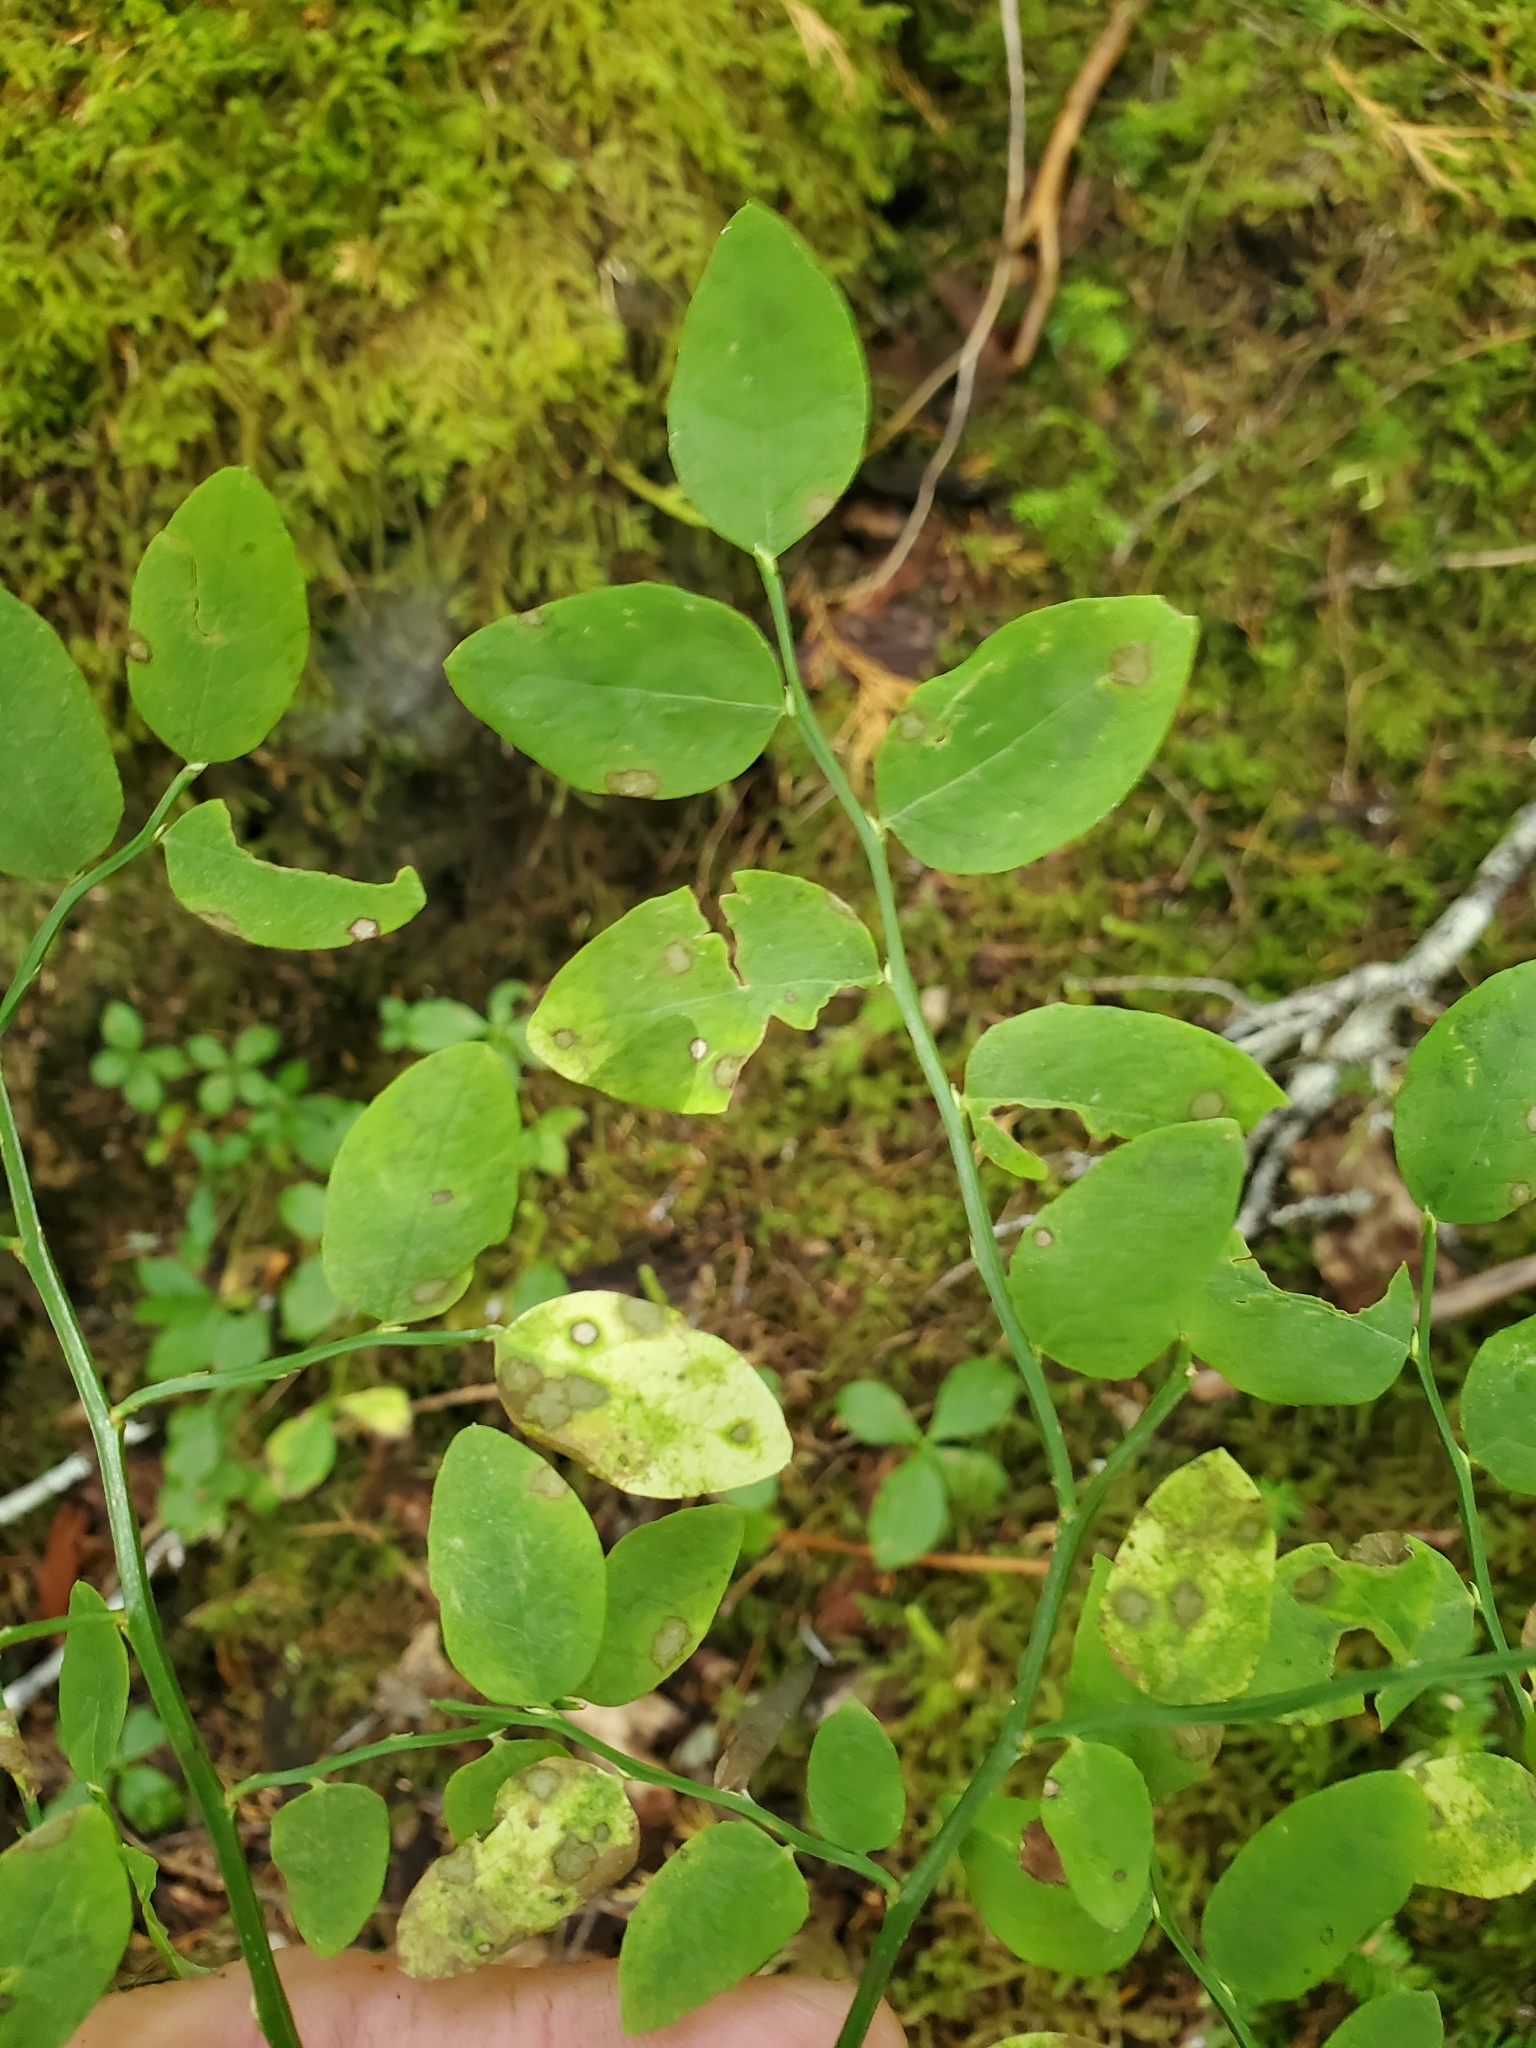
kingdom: Plantae
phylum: Tracheophyta
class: Magnoliopsida
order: Ericales
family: Ericaceae
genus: Vaccinium
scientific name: Vaccinium parvifolium
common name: Red-huckleberry
